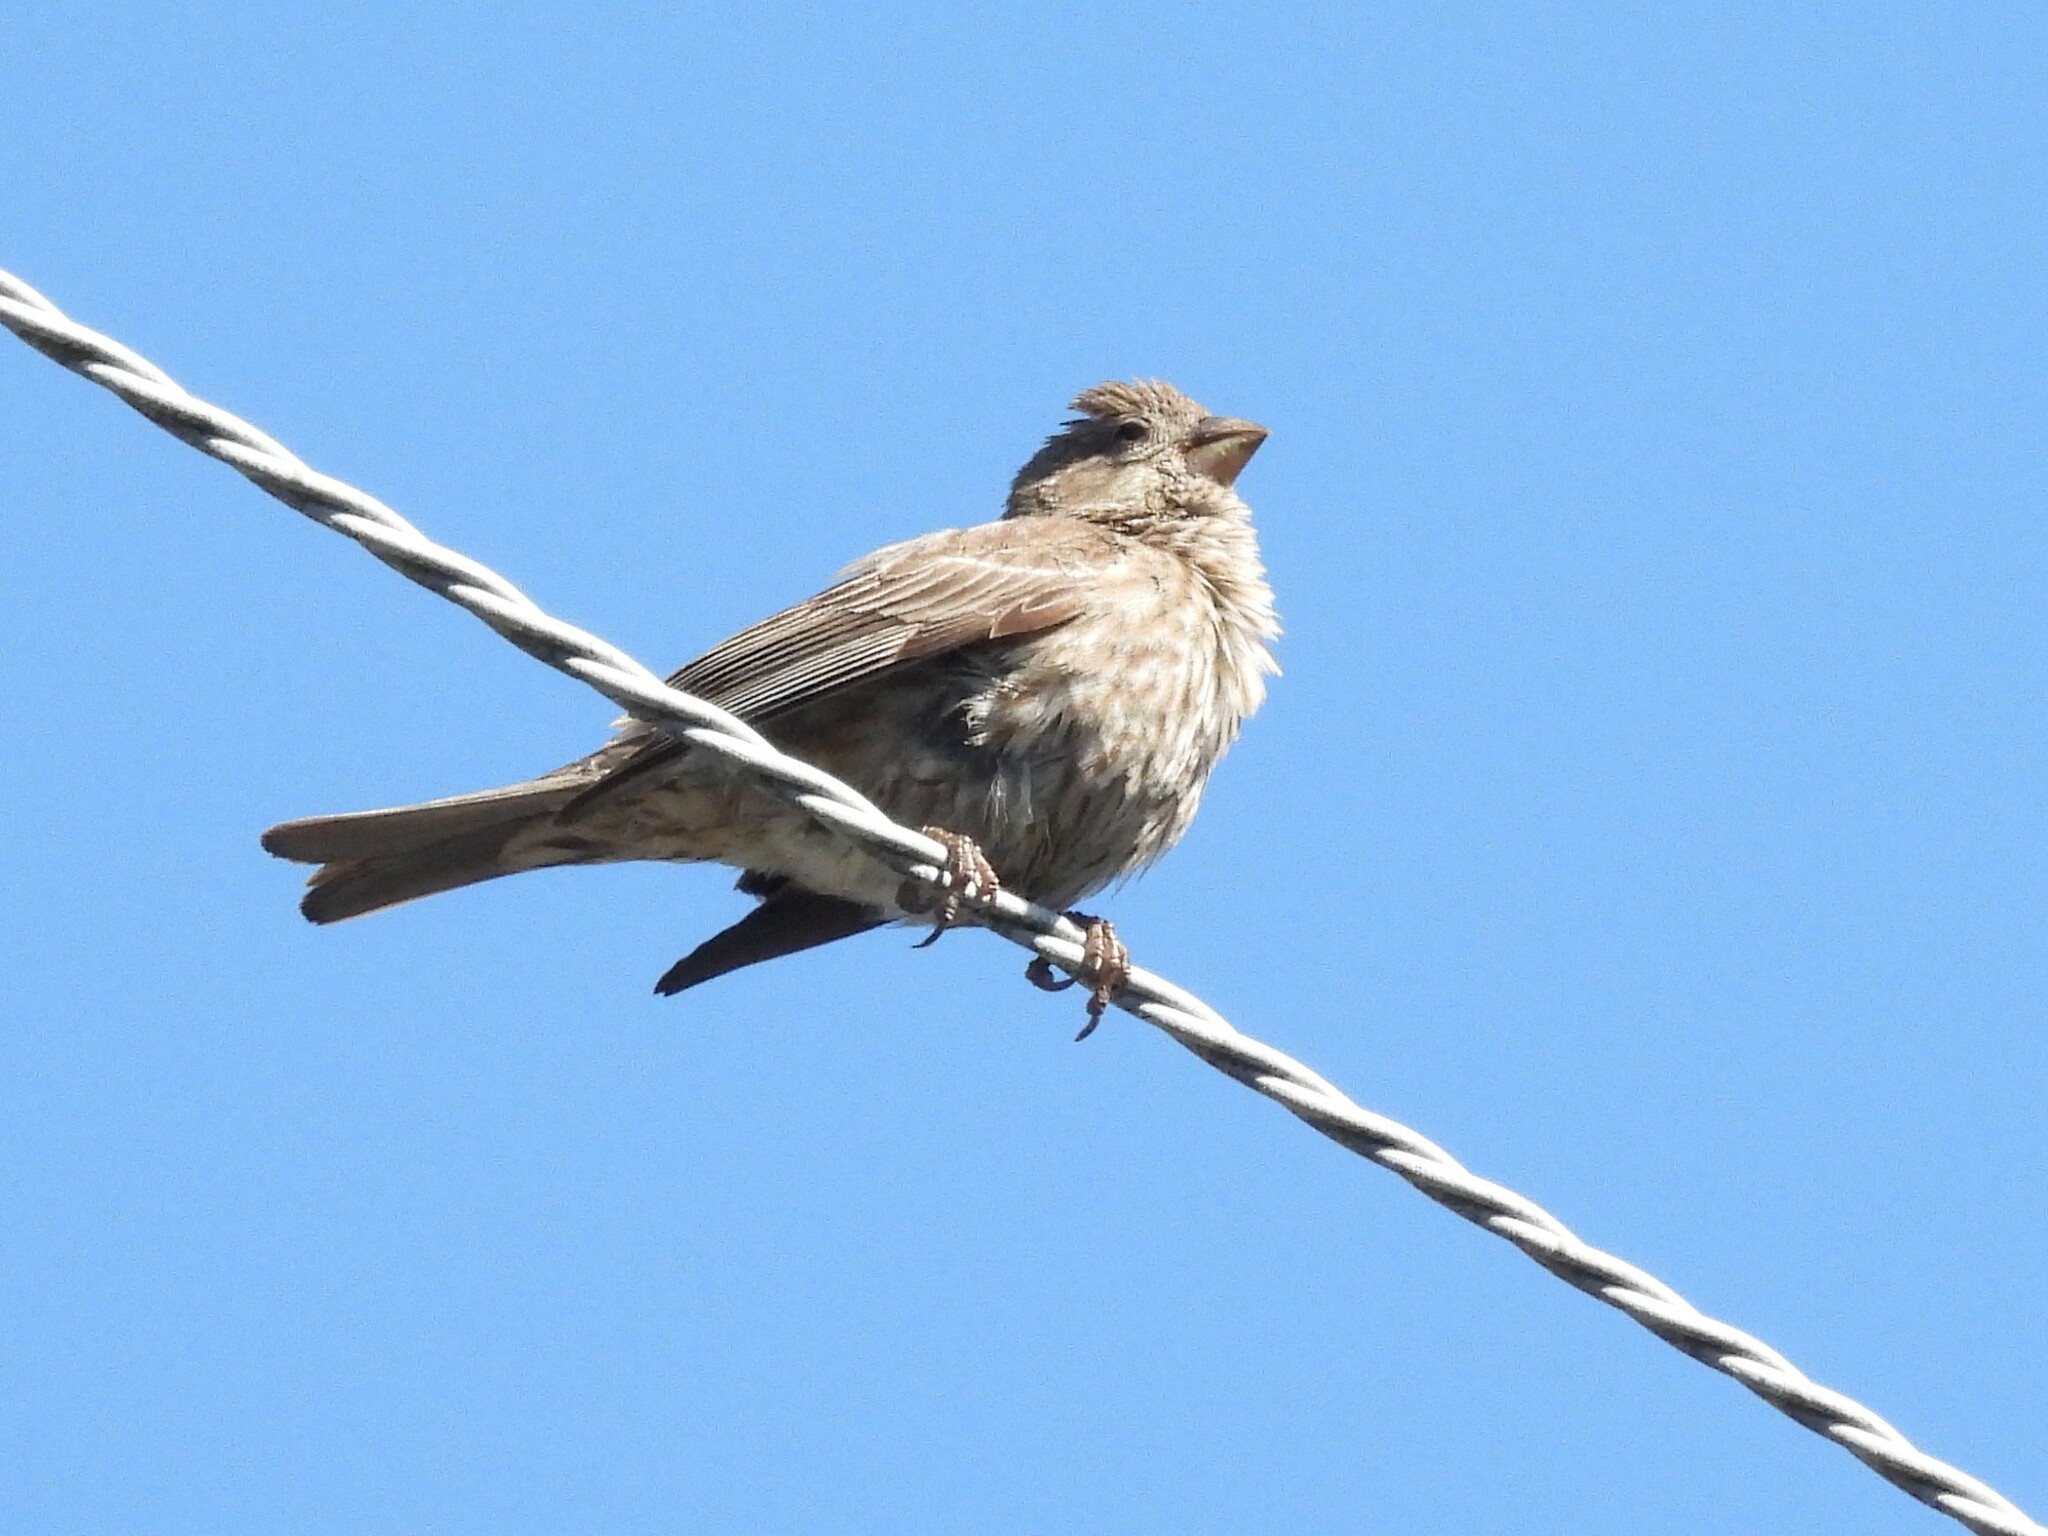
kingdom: Animalia
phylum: Chordata
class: Aves
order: Passeriformes
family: Fringillidae
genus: Haemorhous
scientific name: Haemorhous mexicanus
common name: House finch
